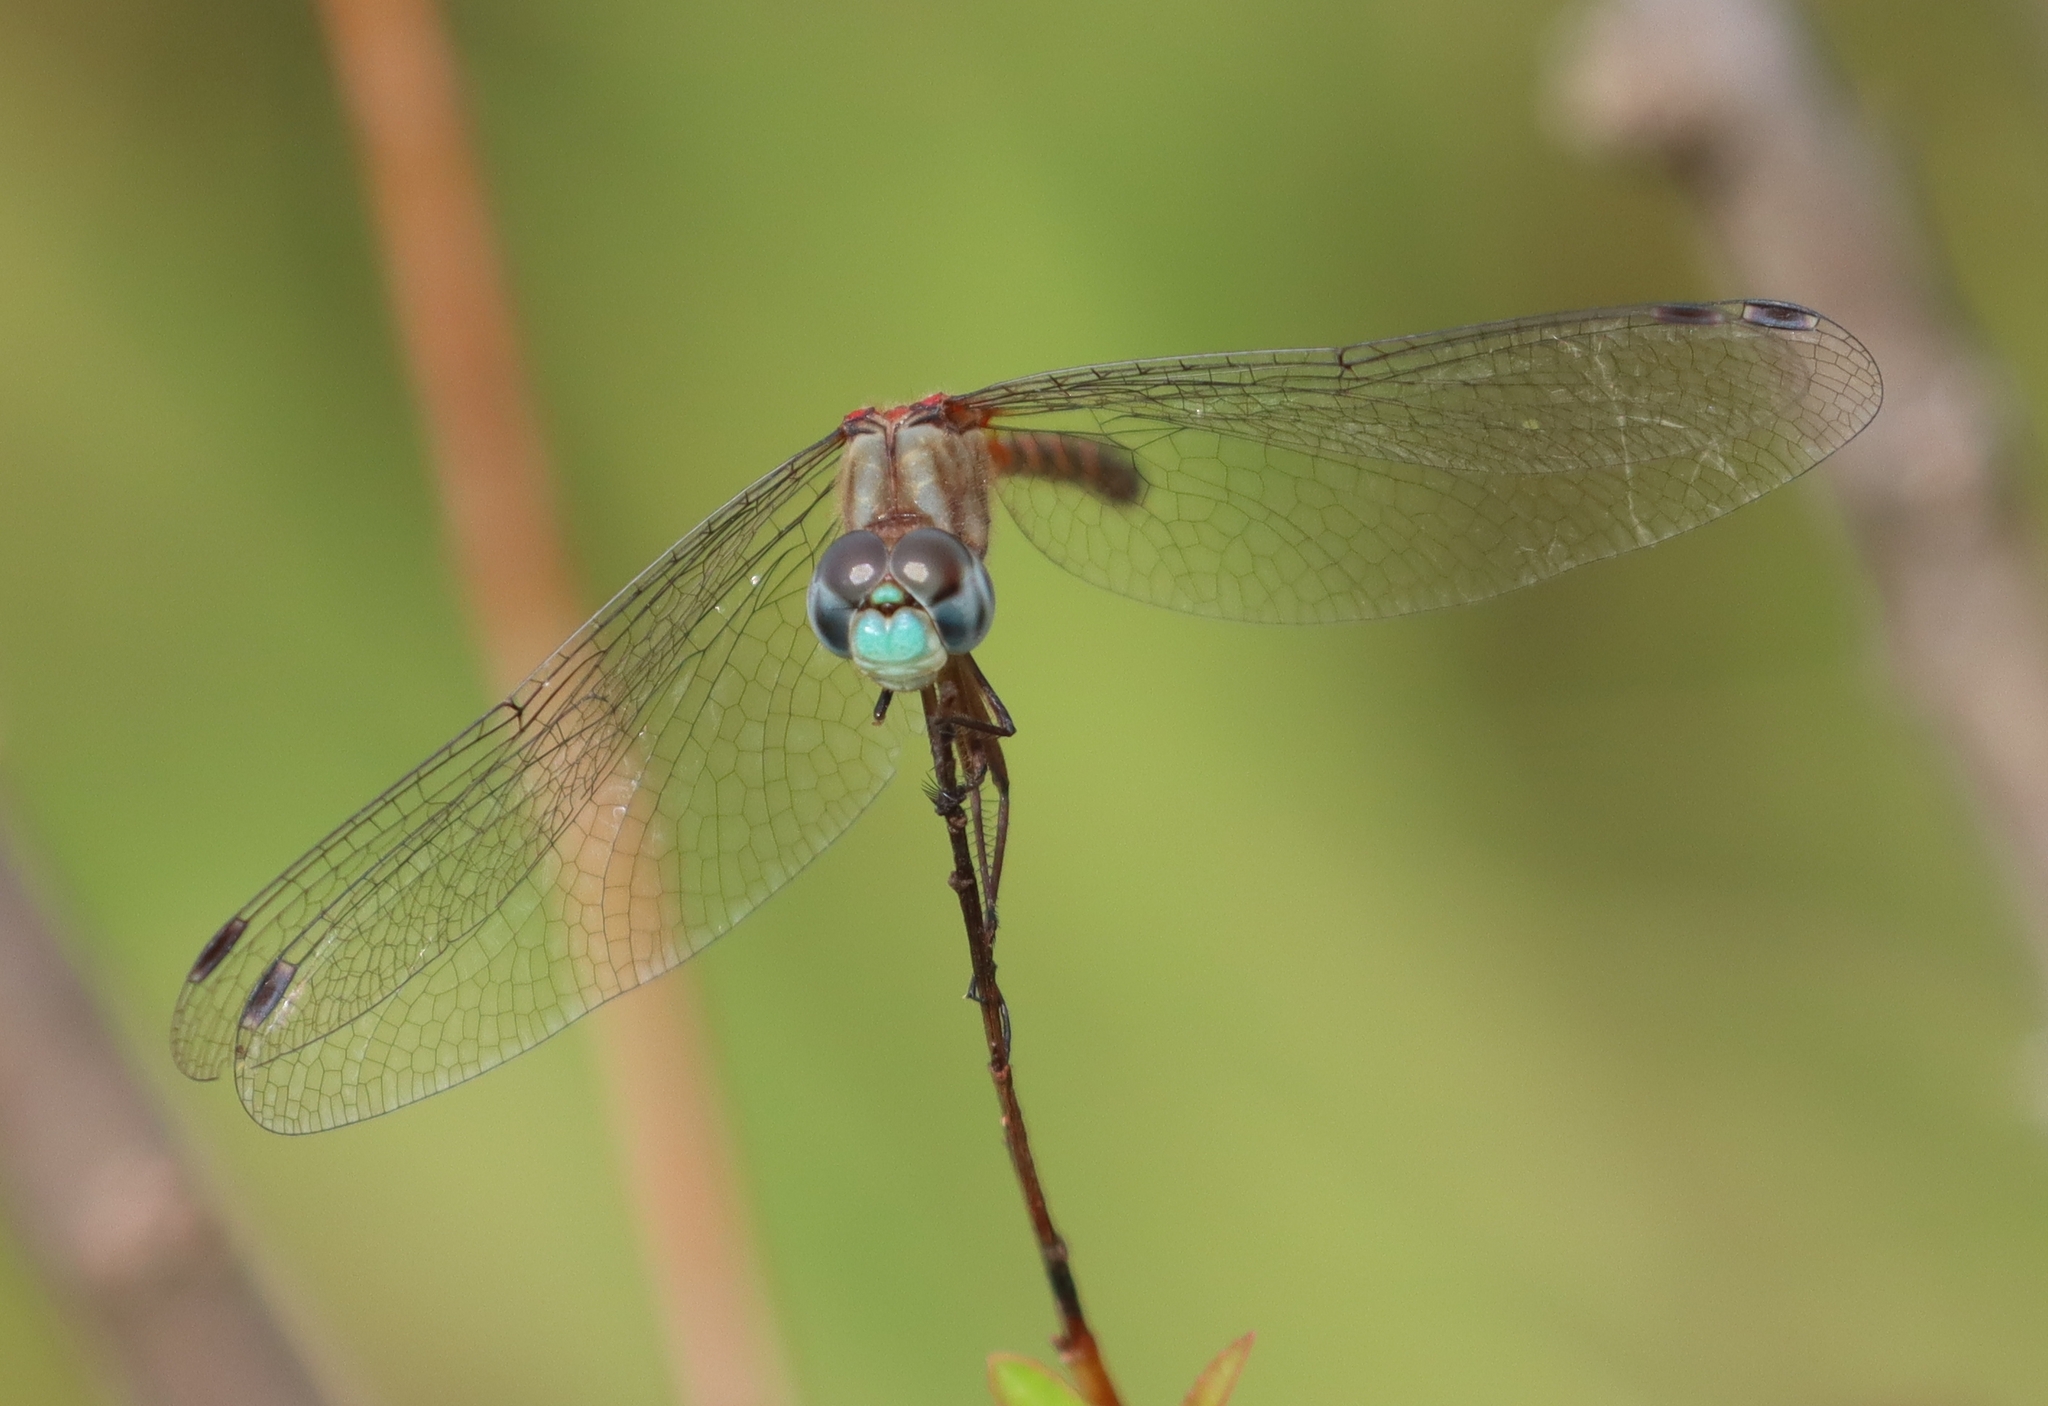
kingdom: Animalia
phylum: Arthropoda
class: Insecta
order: Odonata
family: Libellulidae
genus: Sympetrum
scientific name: Sympetrum ambiguum
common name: Blue-faced meadowhawk
